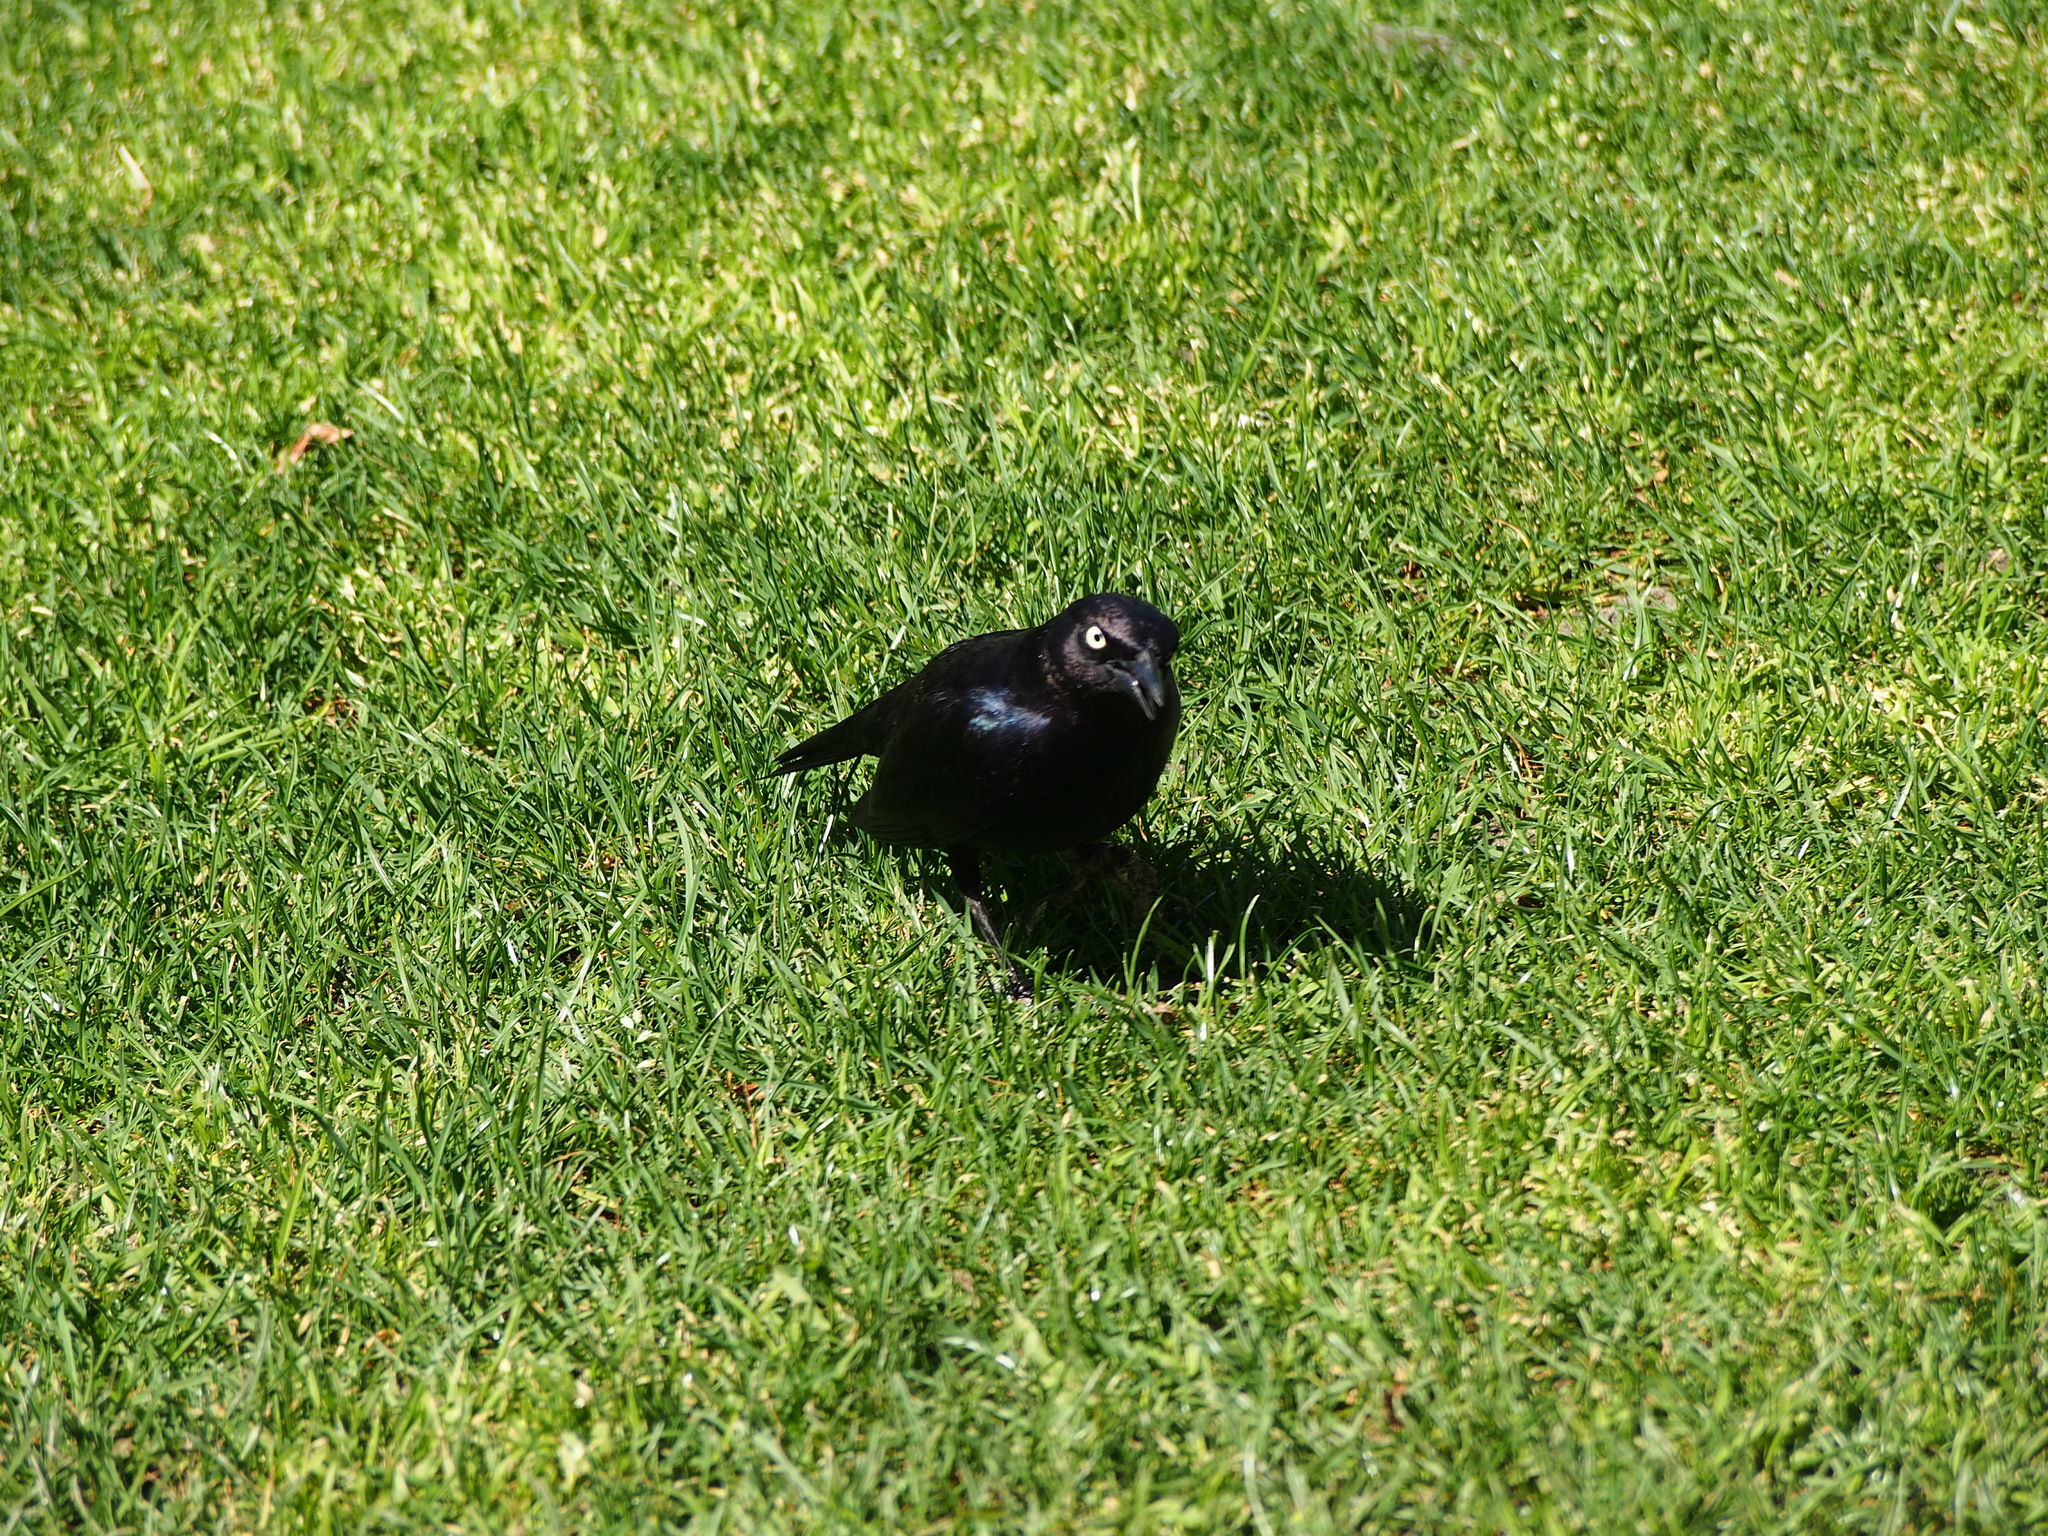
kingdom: Animalia
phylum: Chordata
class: Aves
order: Passeriformes
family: Icteridae
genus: Euphagus
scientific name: Euphagus cyanocephalus
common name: Brewer's blackbird
